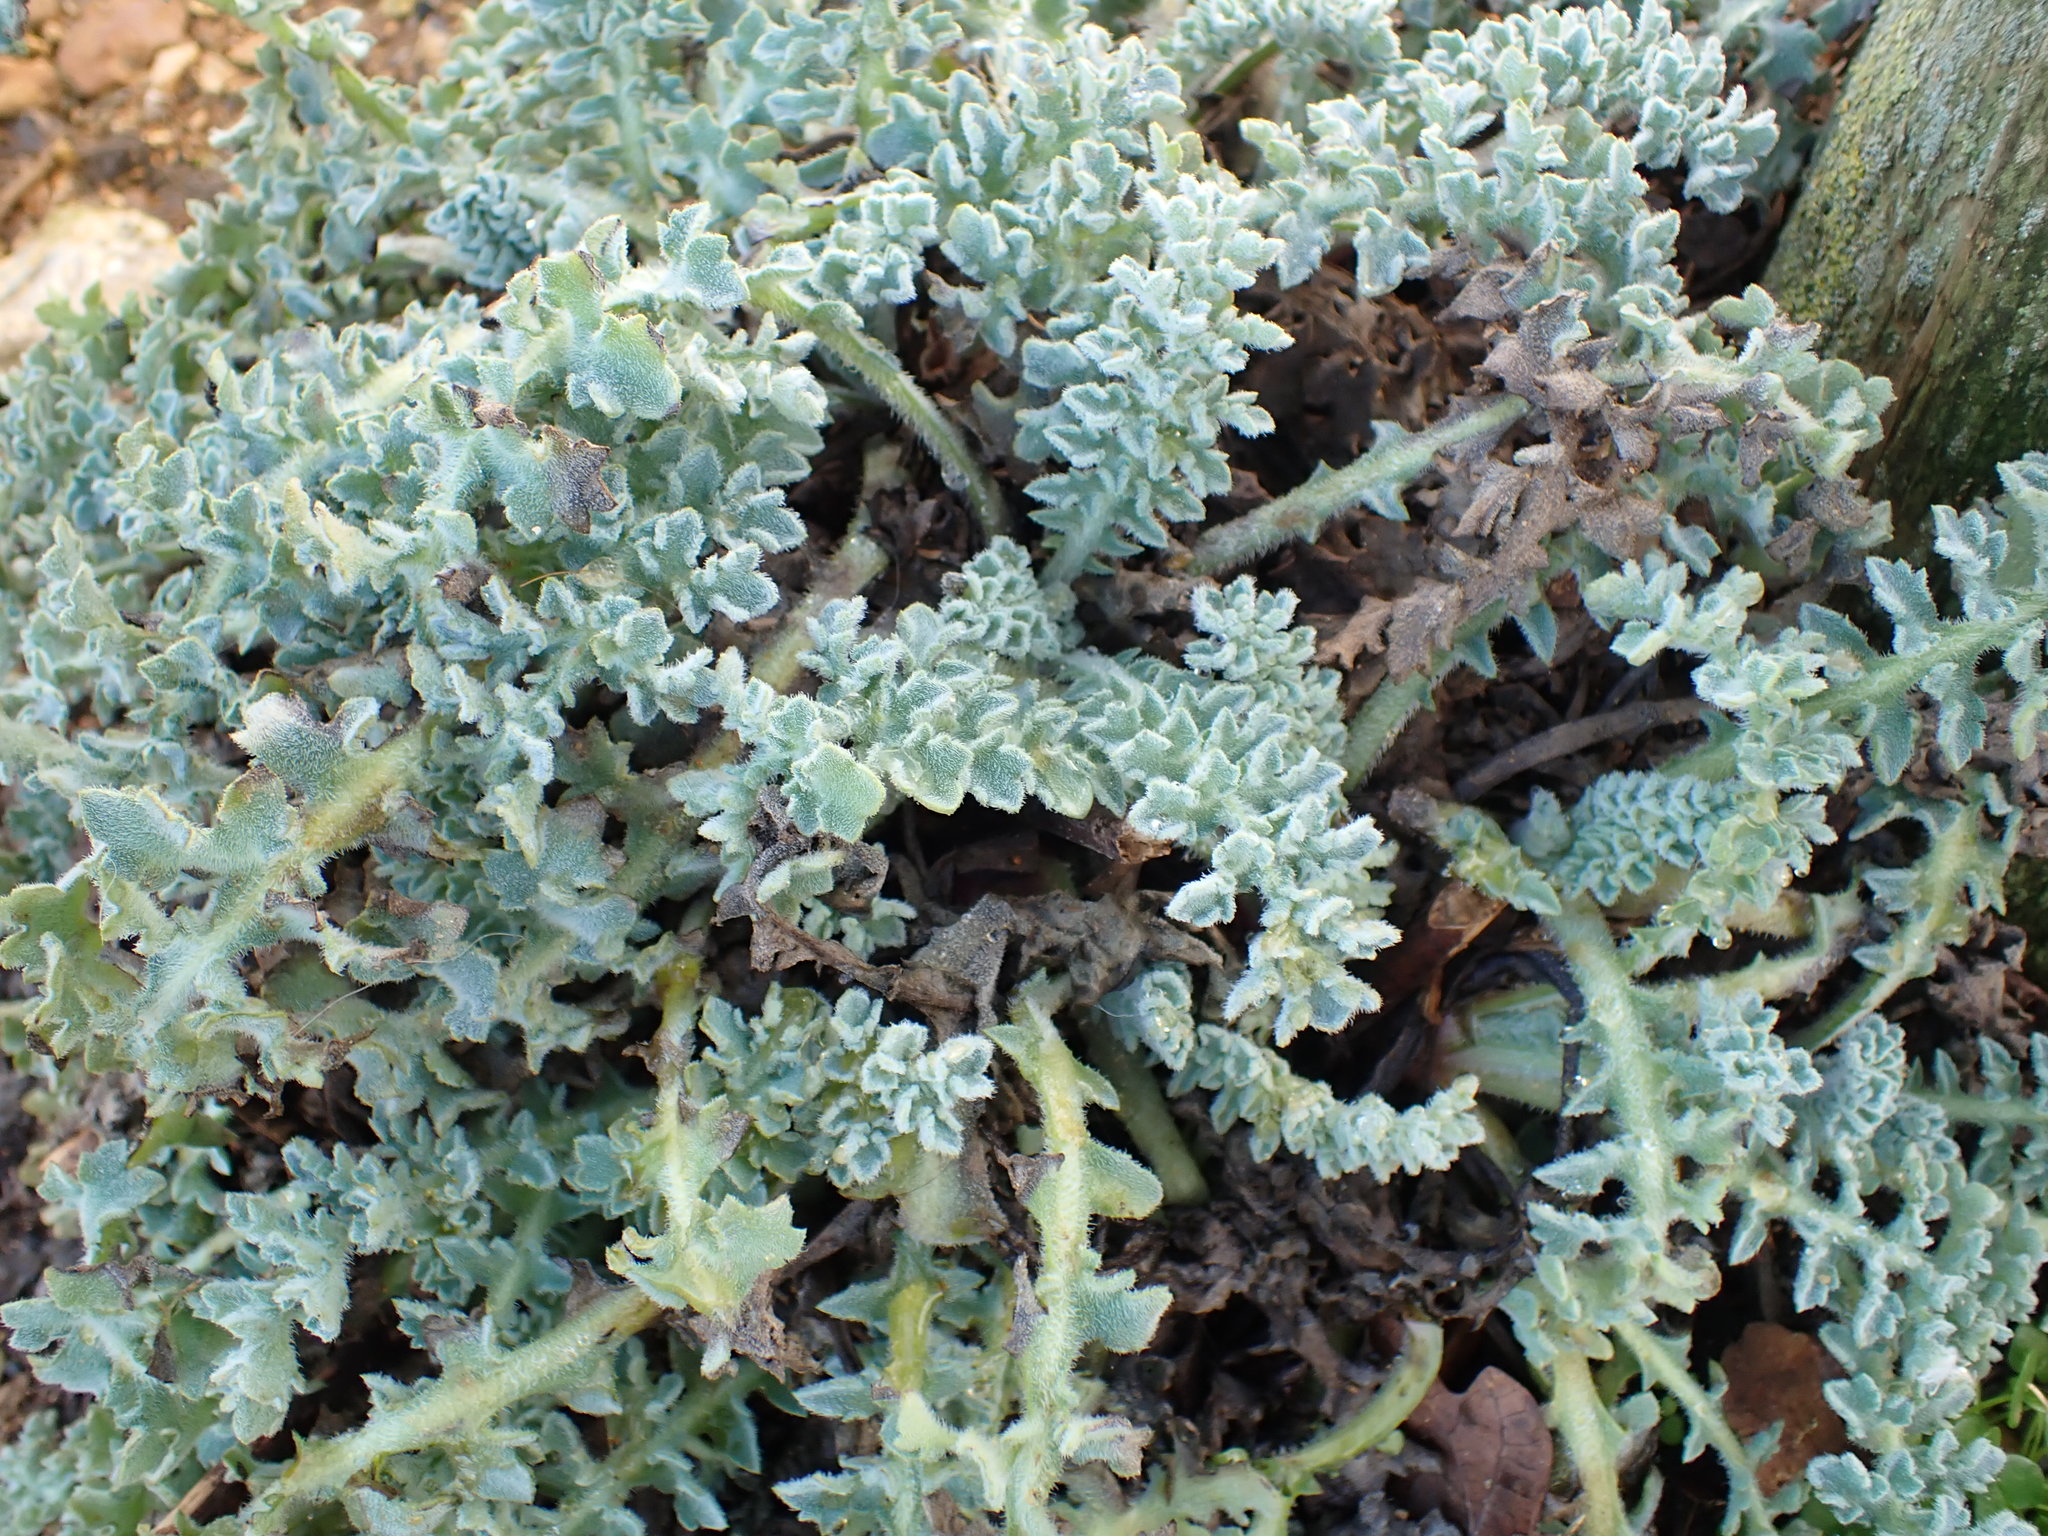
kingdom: Plantae
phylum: Tracheophyta
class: Magnoliopsida
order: Ranunculales
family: Papaveraceae
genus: Glaucium
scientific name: Glaucium flavum
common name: Yellow horned-poppy
